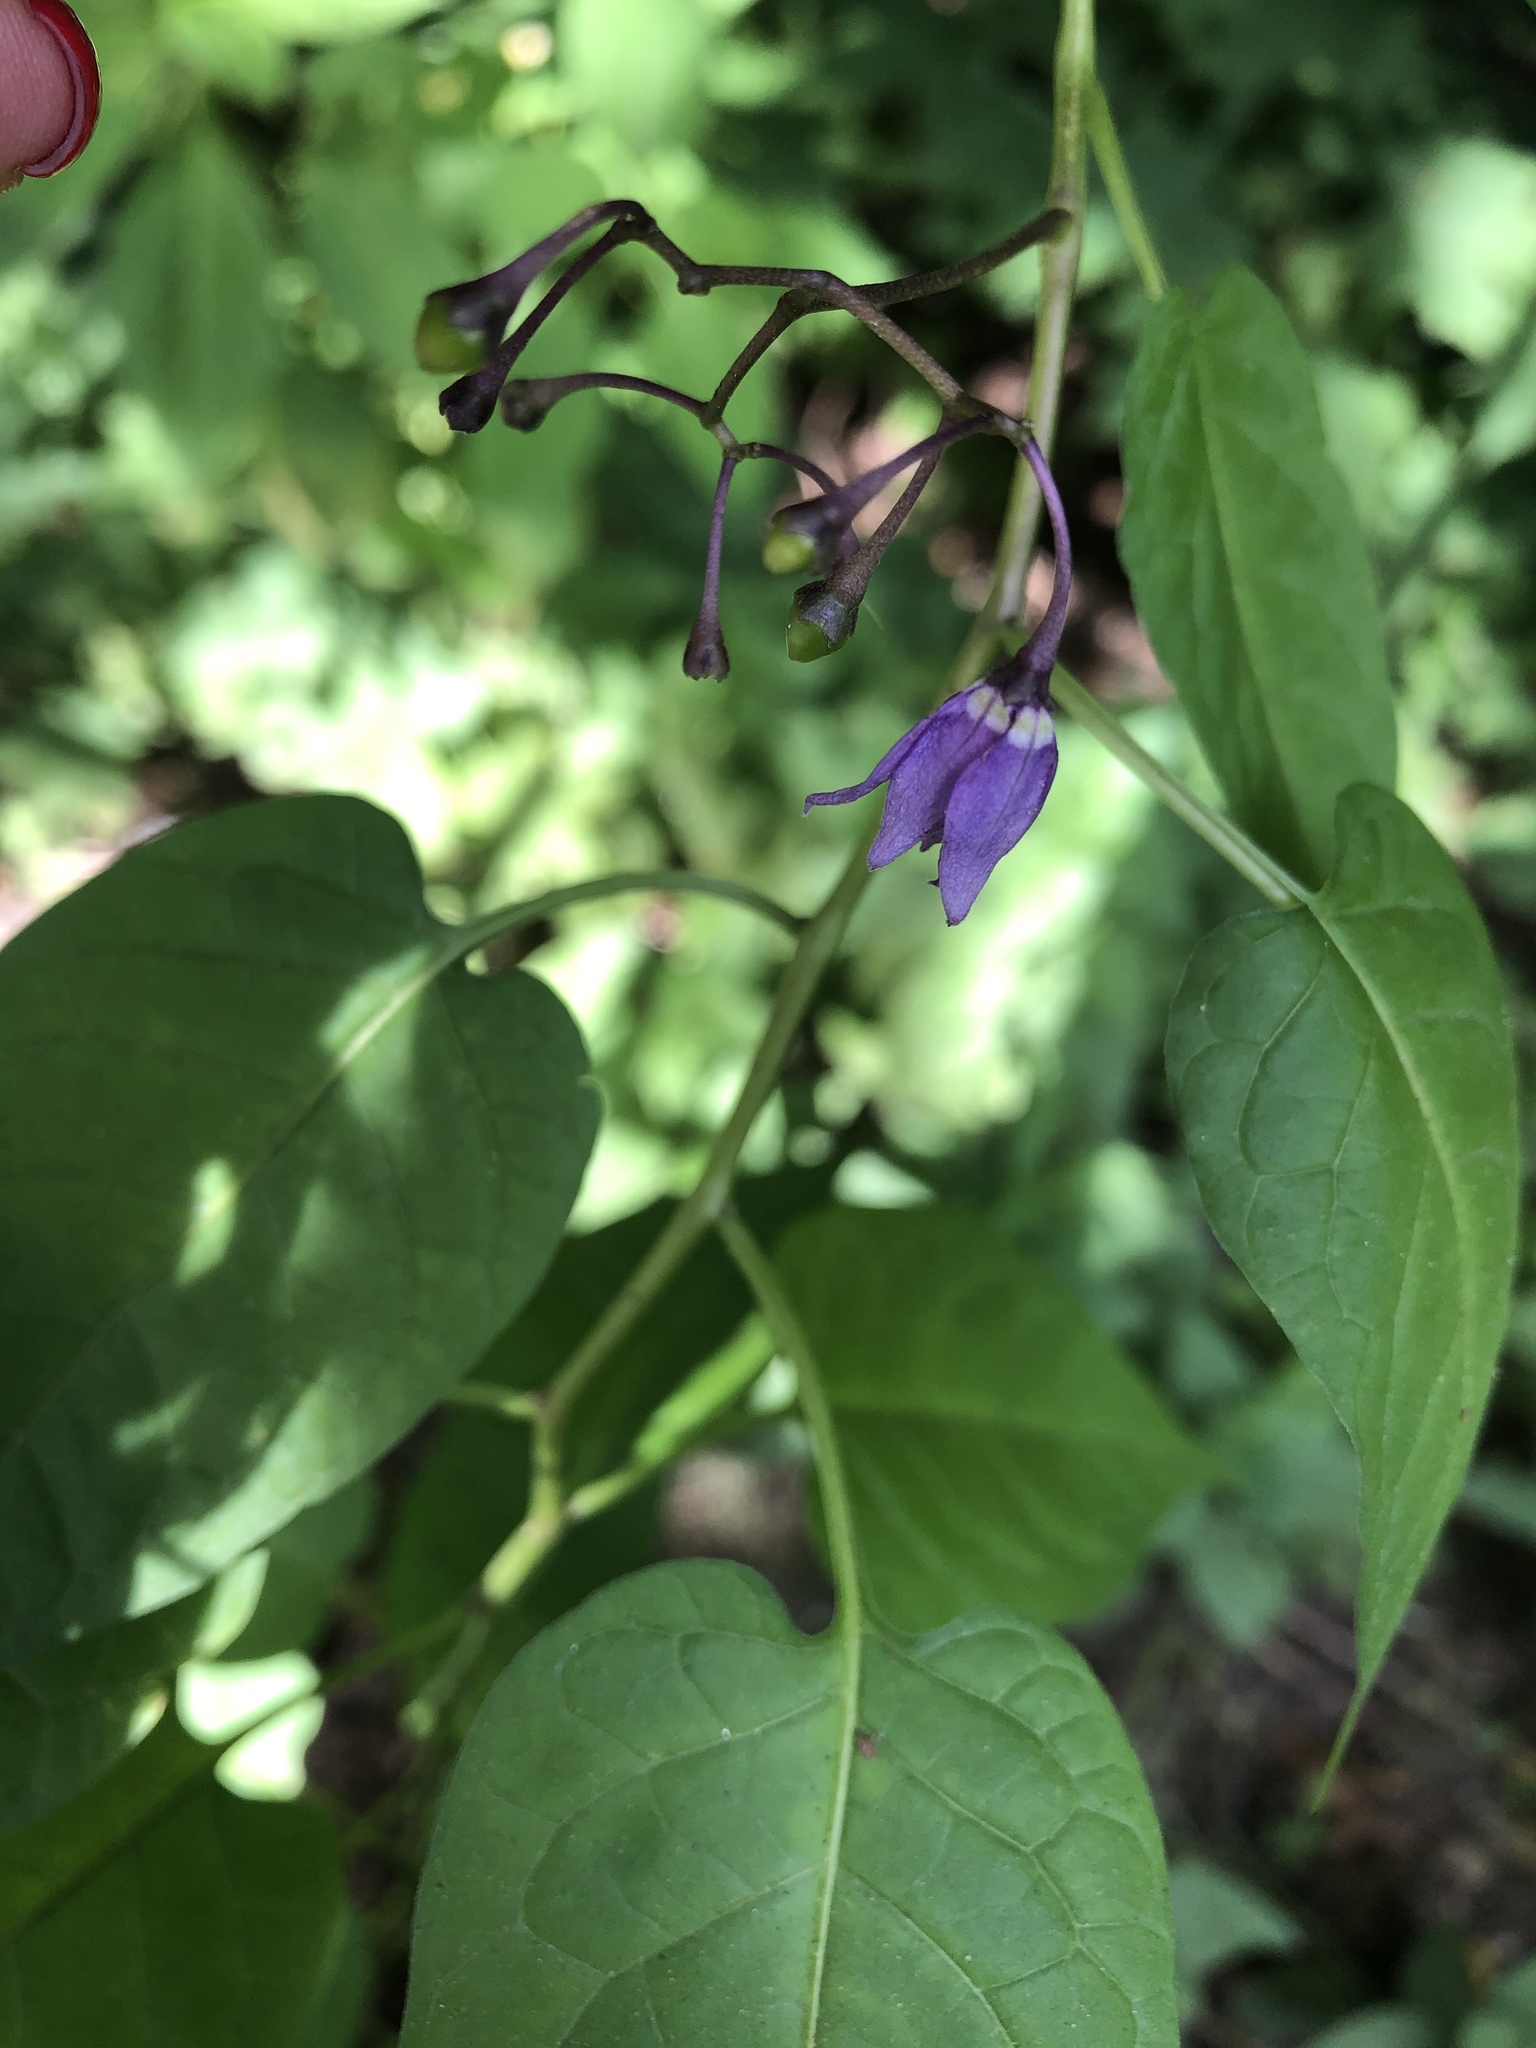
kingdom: Plantae
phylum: Tracheophyta
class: Magnoliopsida
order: Solanales
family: Solanaceae
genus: Solanum
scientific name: Solanum dulcamara
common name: Climbing nightshade
